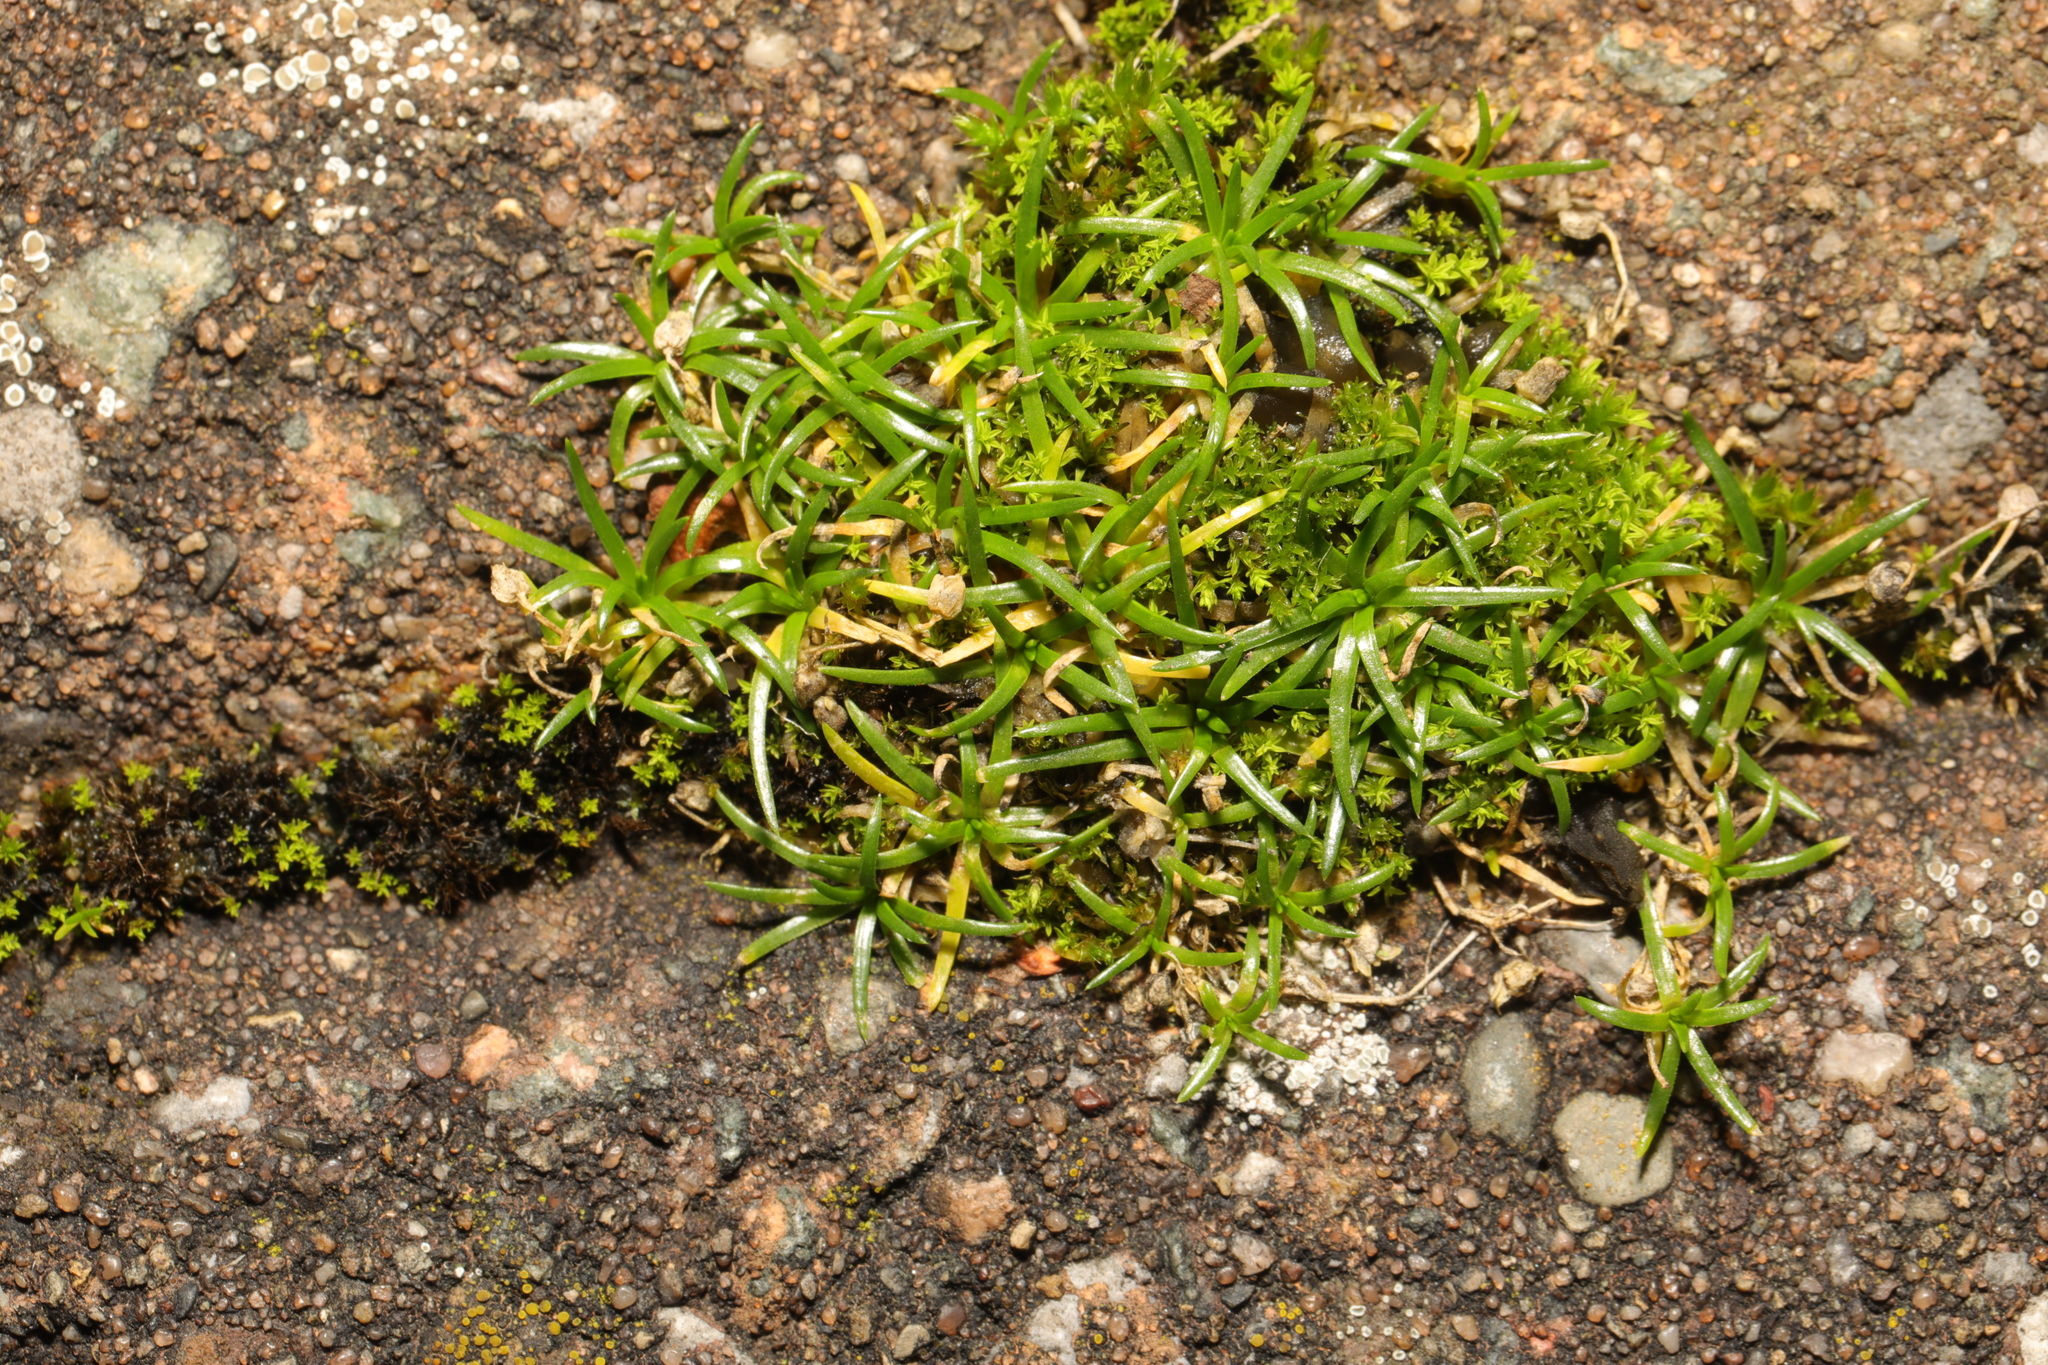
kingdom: Plantae
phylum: Tracheophyta
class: Magnoliopsida
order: Caryophyllales
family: Caryophyllaceae
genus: Sagina
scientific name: Sagina procumbens
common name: Procumbent pearlwort
